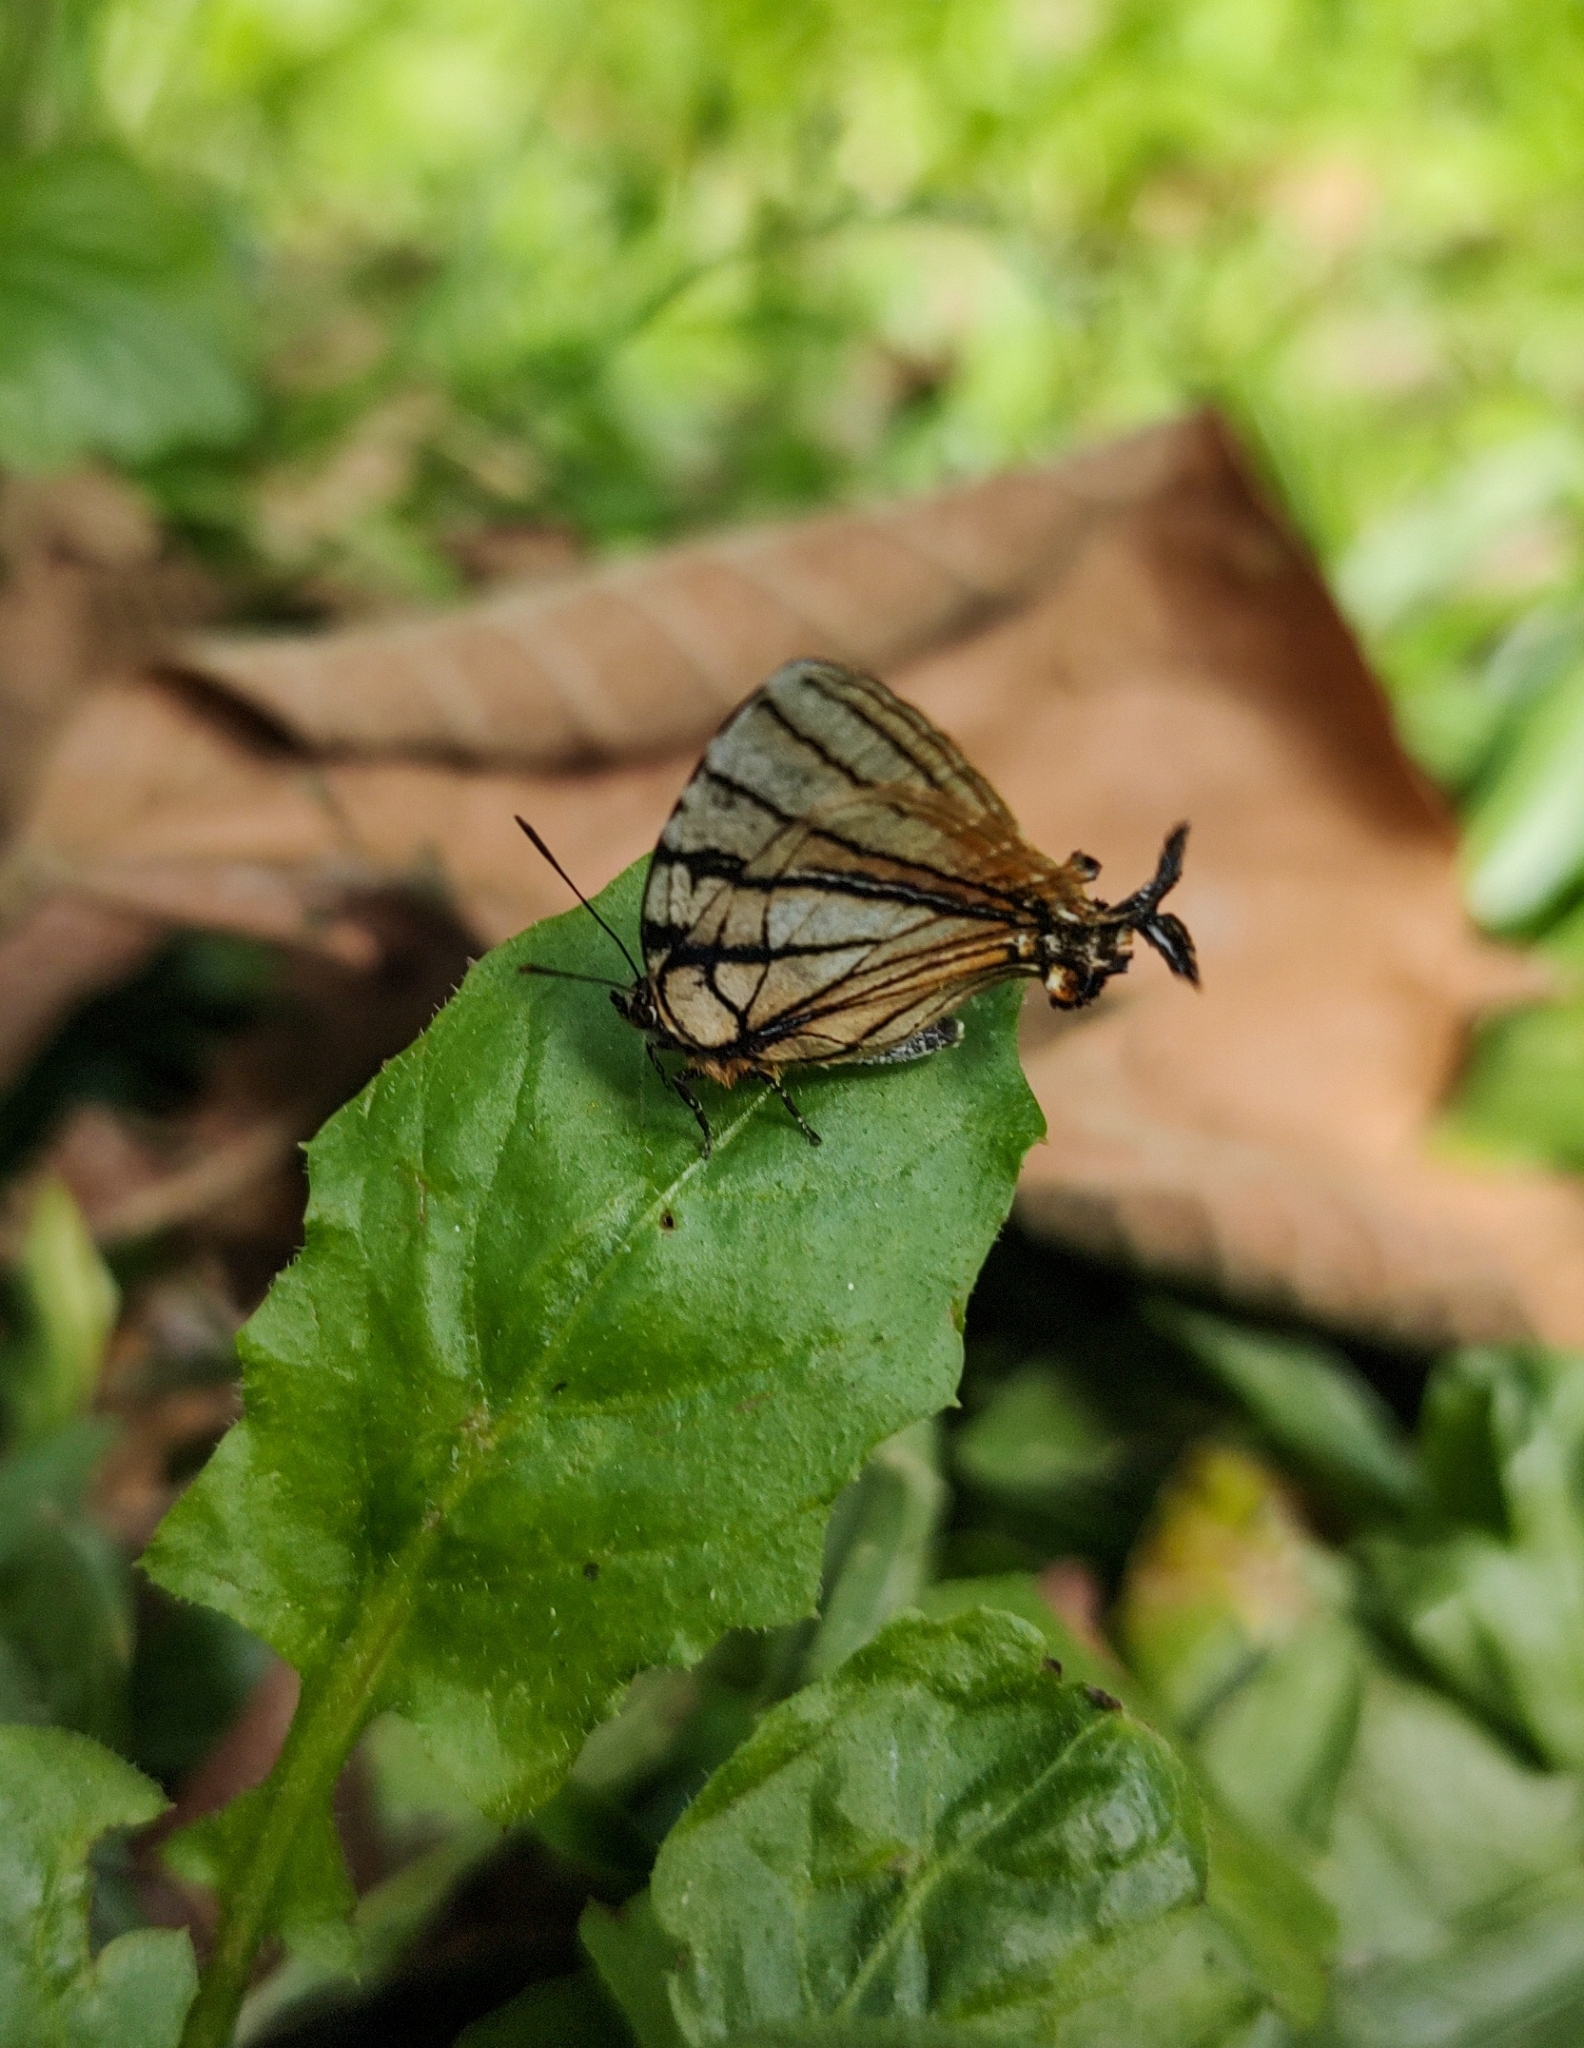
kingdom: Animalia
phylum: Arthropoda
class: Insecta
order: Lepidoptera
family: Lycaenidae
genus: Arawacus
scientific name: Arawacus melibaeus
